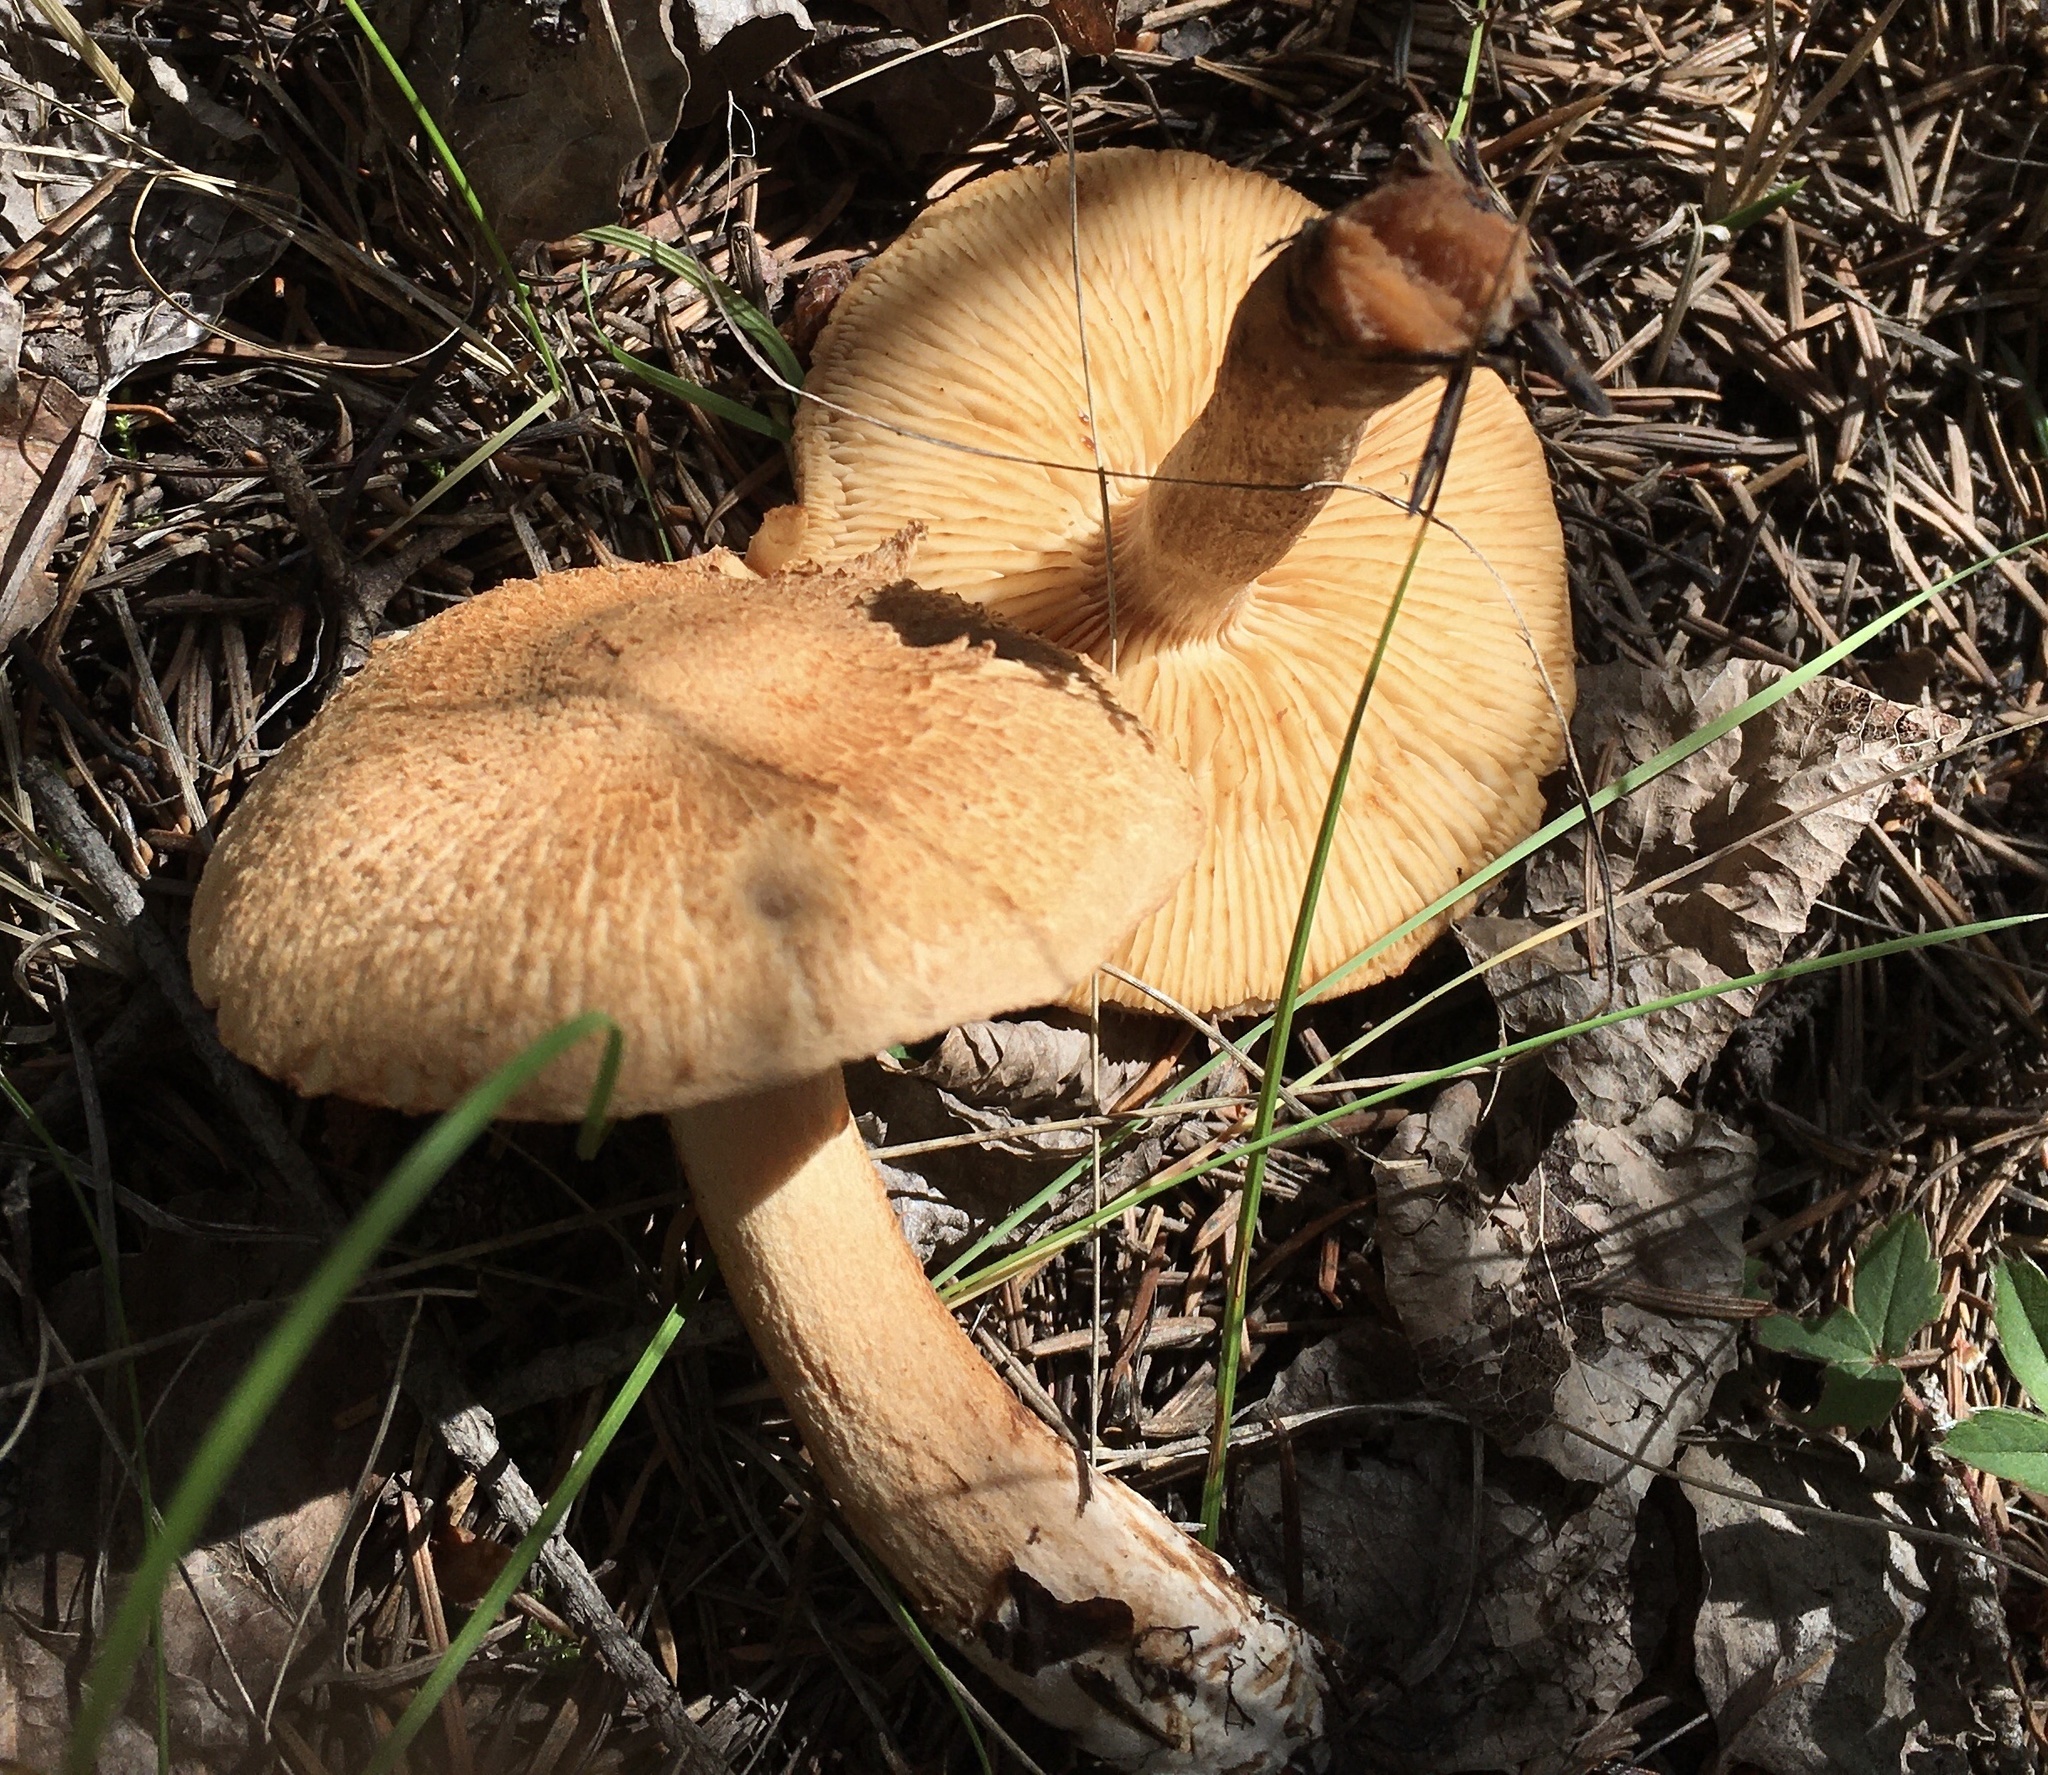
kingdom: Fungi
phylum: Basidiomycota
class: Agaricomycetes
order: Agaricales
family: Tricholomataceae
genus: Tricholoma
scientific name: Tricholoma vaccinum
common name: Scaly knight
